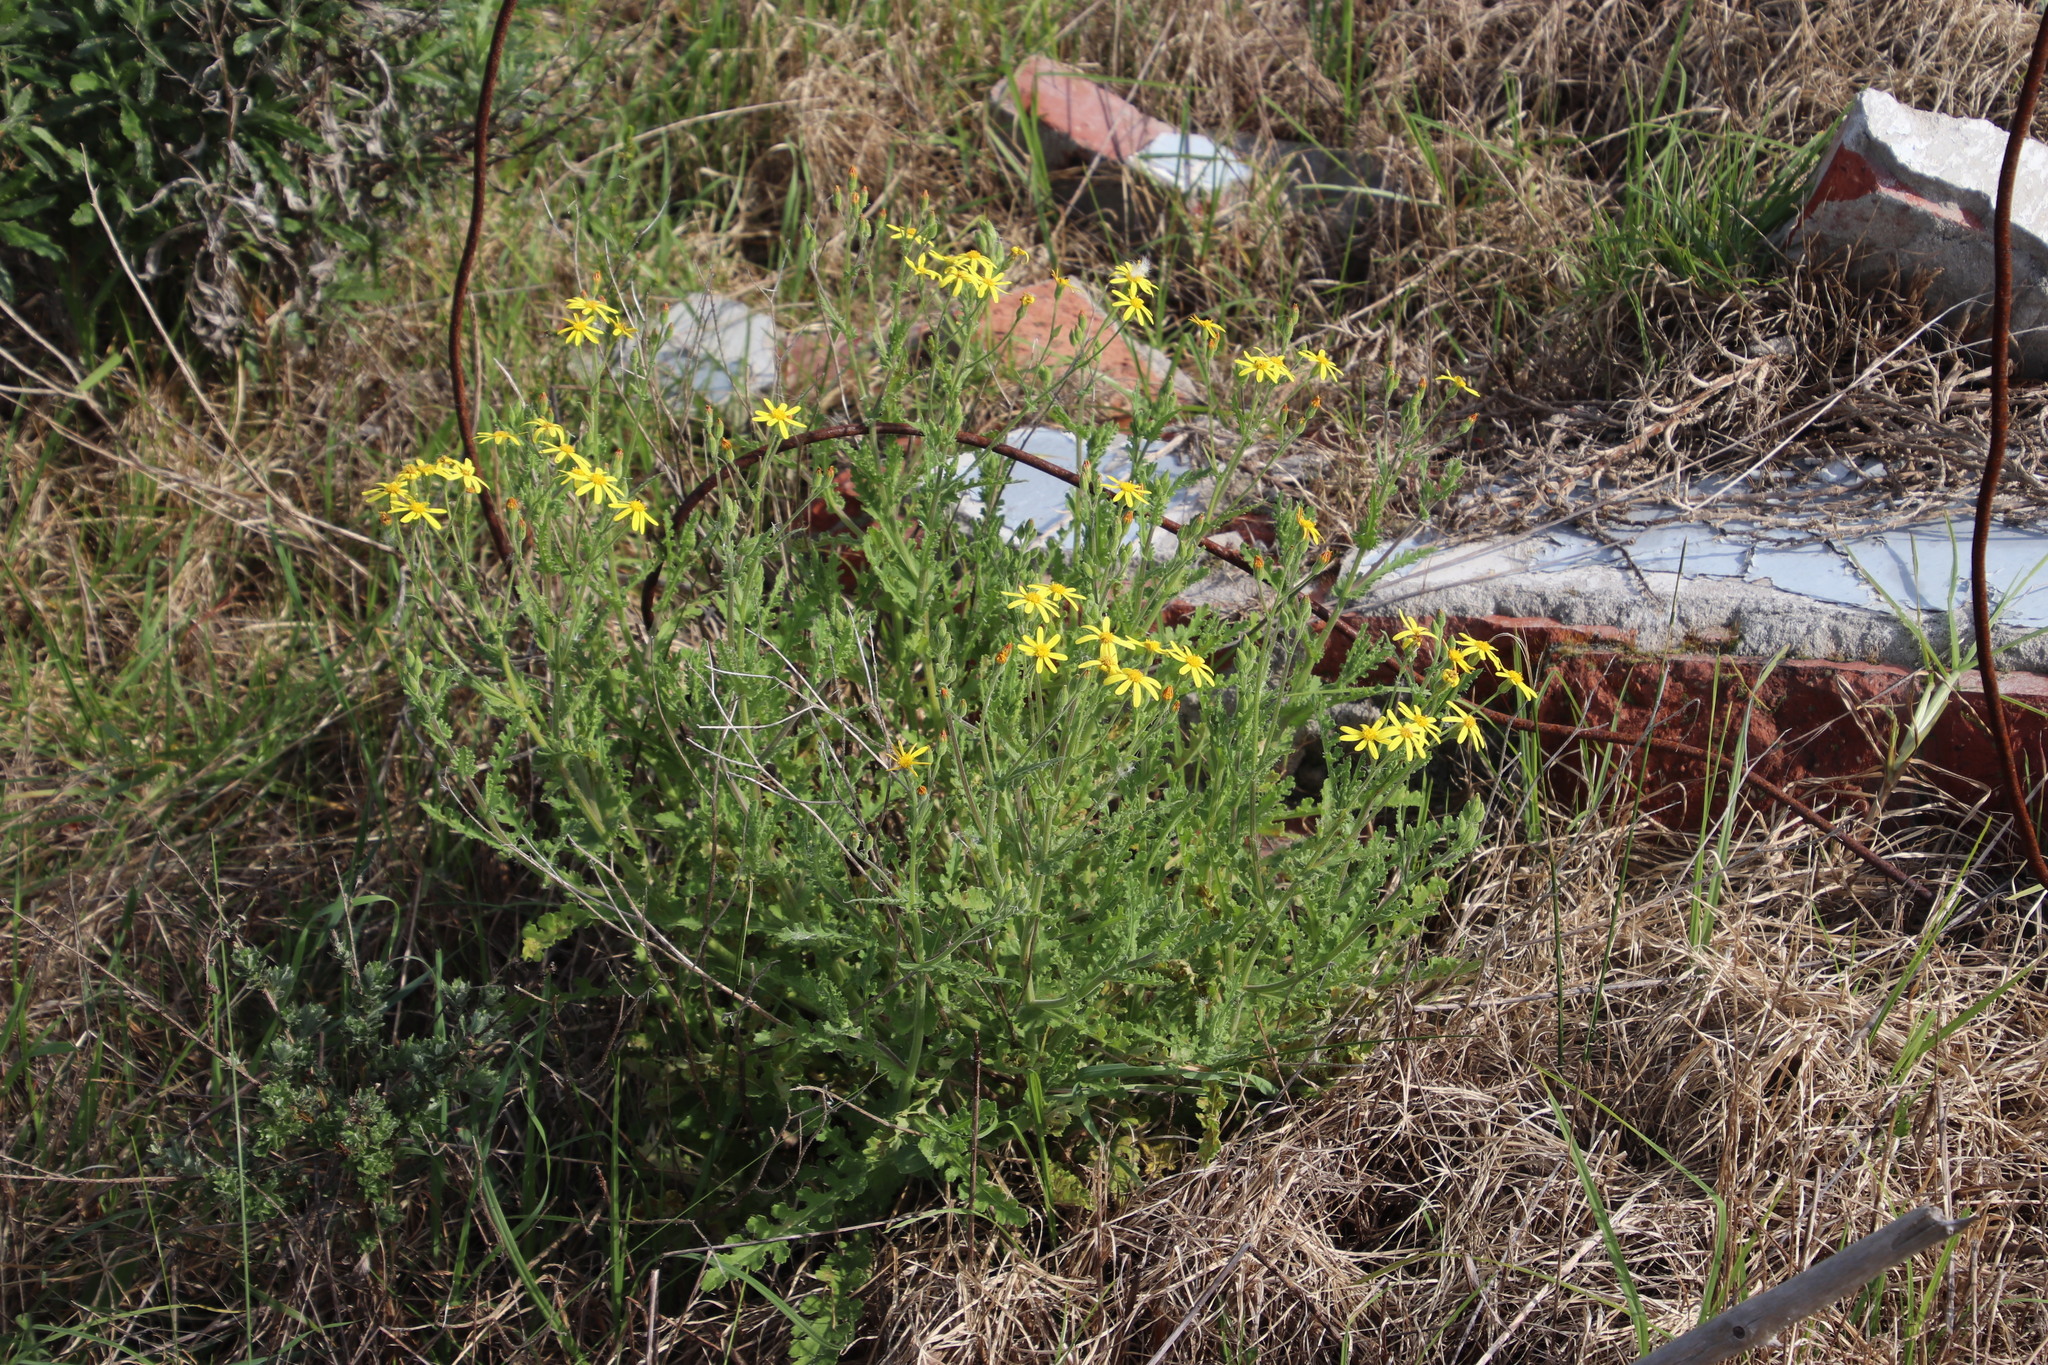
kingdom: Plantae
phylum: Tracheophyta
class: Magnoliopsida
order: Asterales
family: Asteraceae
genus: Senecio
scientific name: Senecio hastatus
